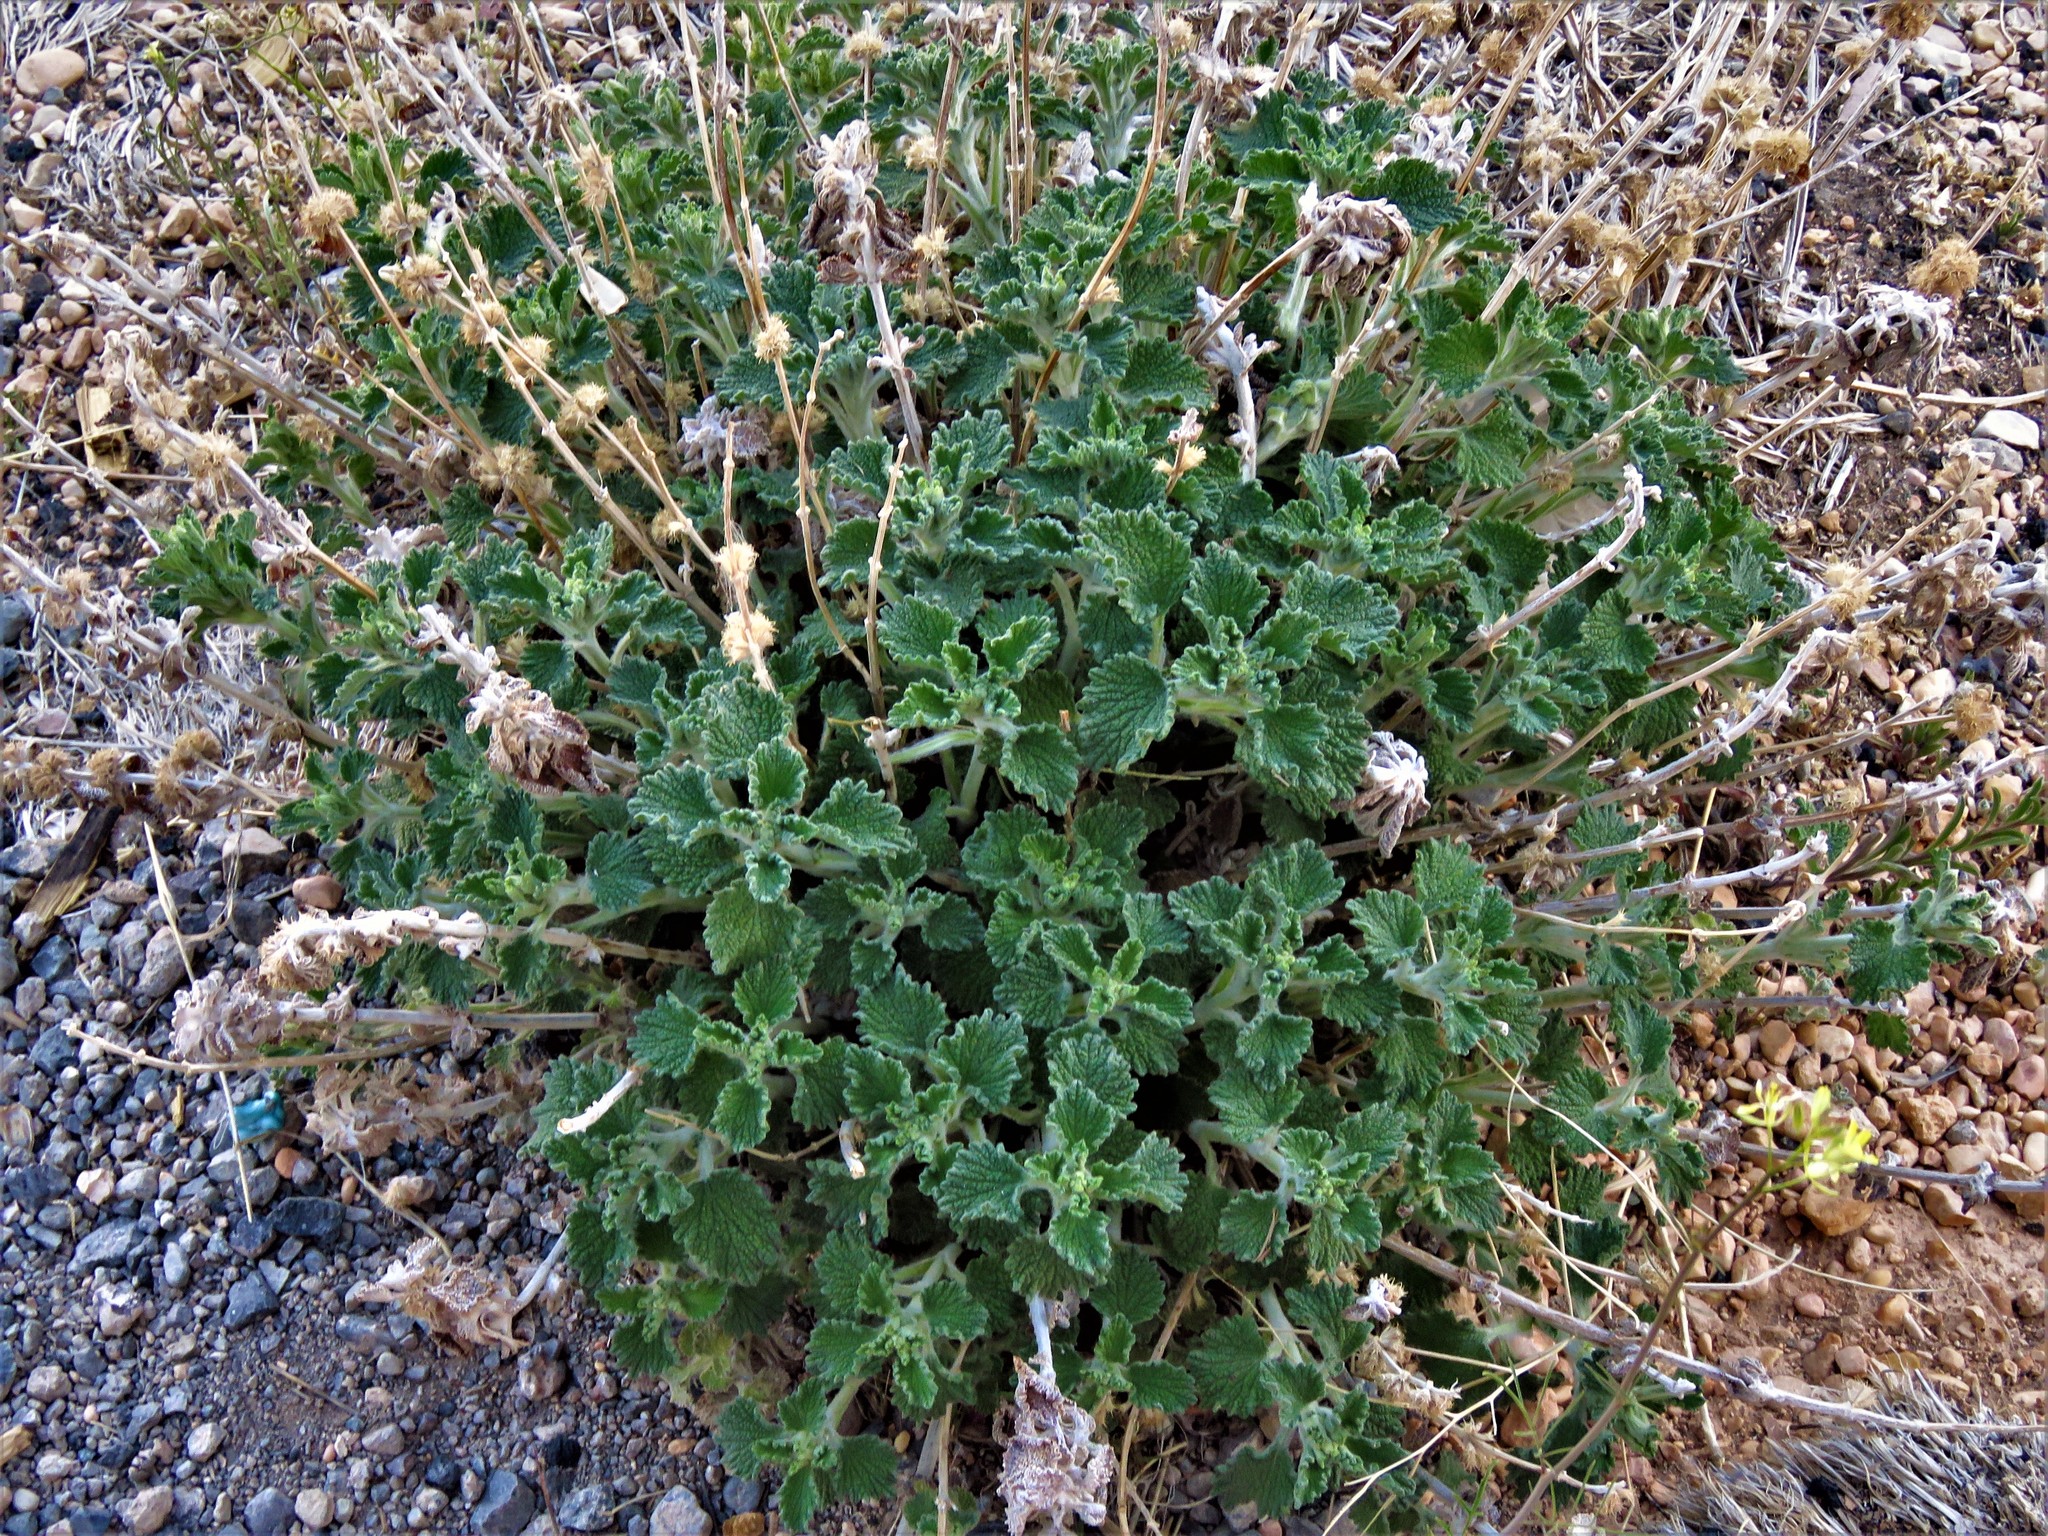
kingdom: Plantae
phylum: Tracheophyta
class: Magnoliopsida
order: Lamiales
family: Lamiaceae
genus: Marrubium
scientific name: Marrubium vulgare
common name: Horehound
